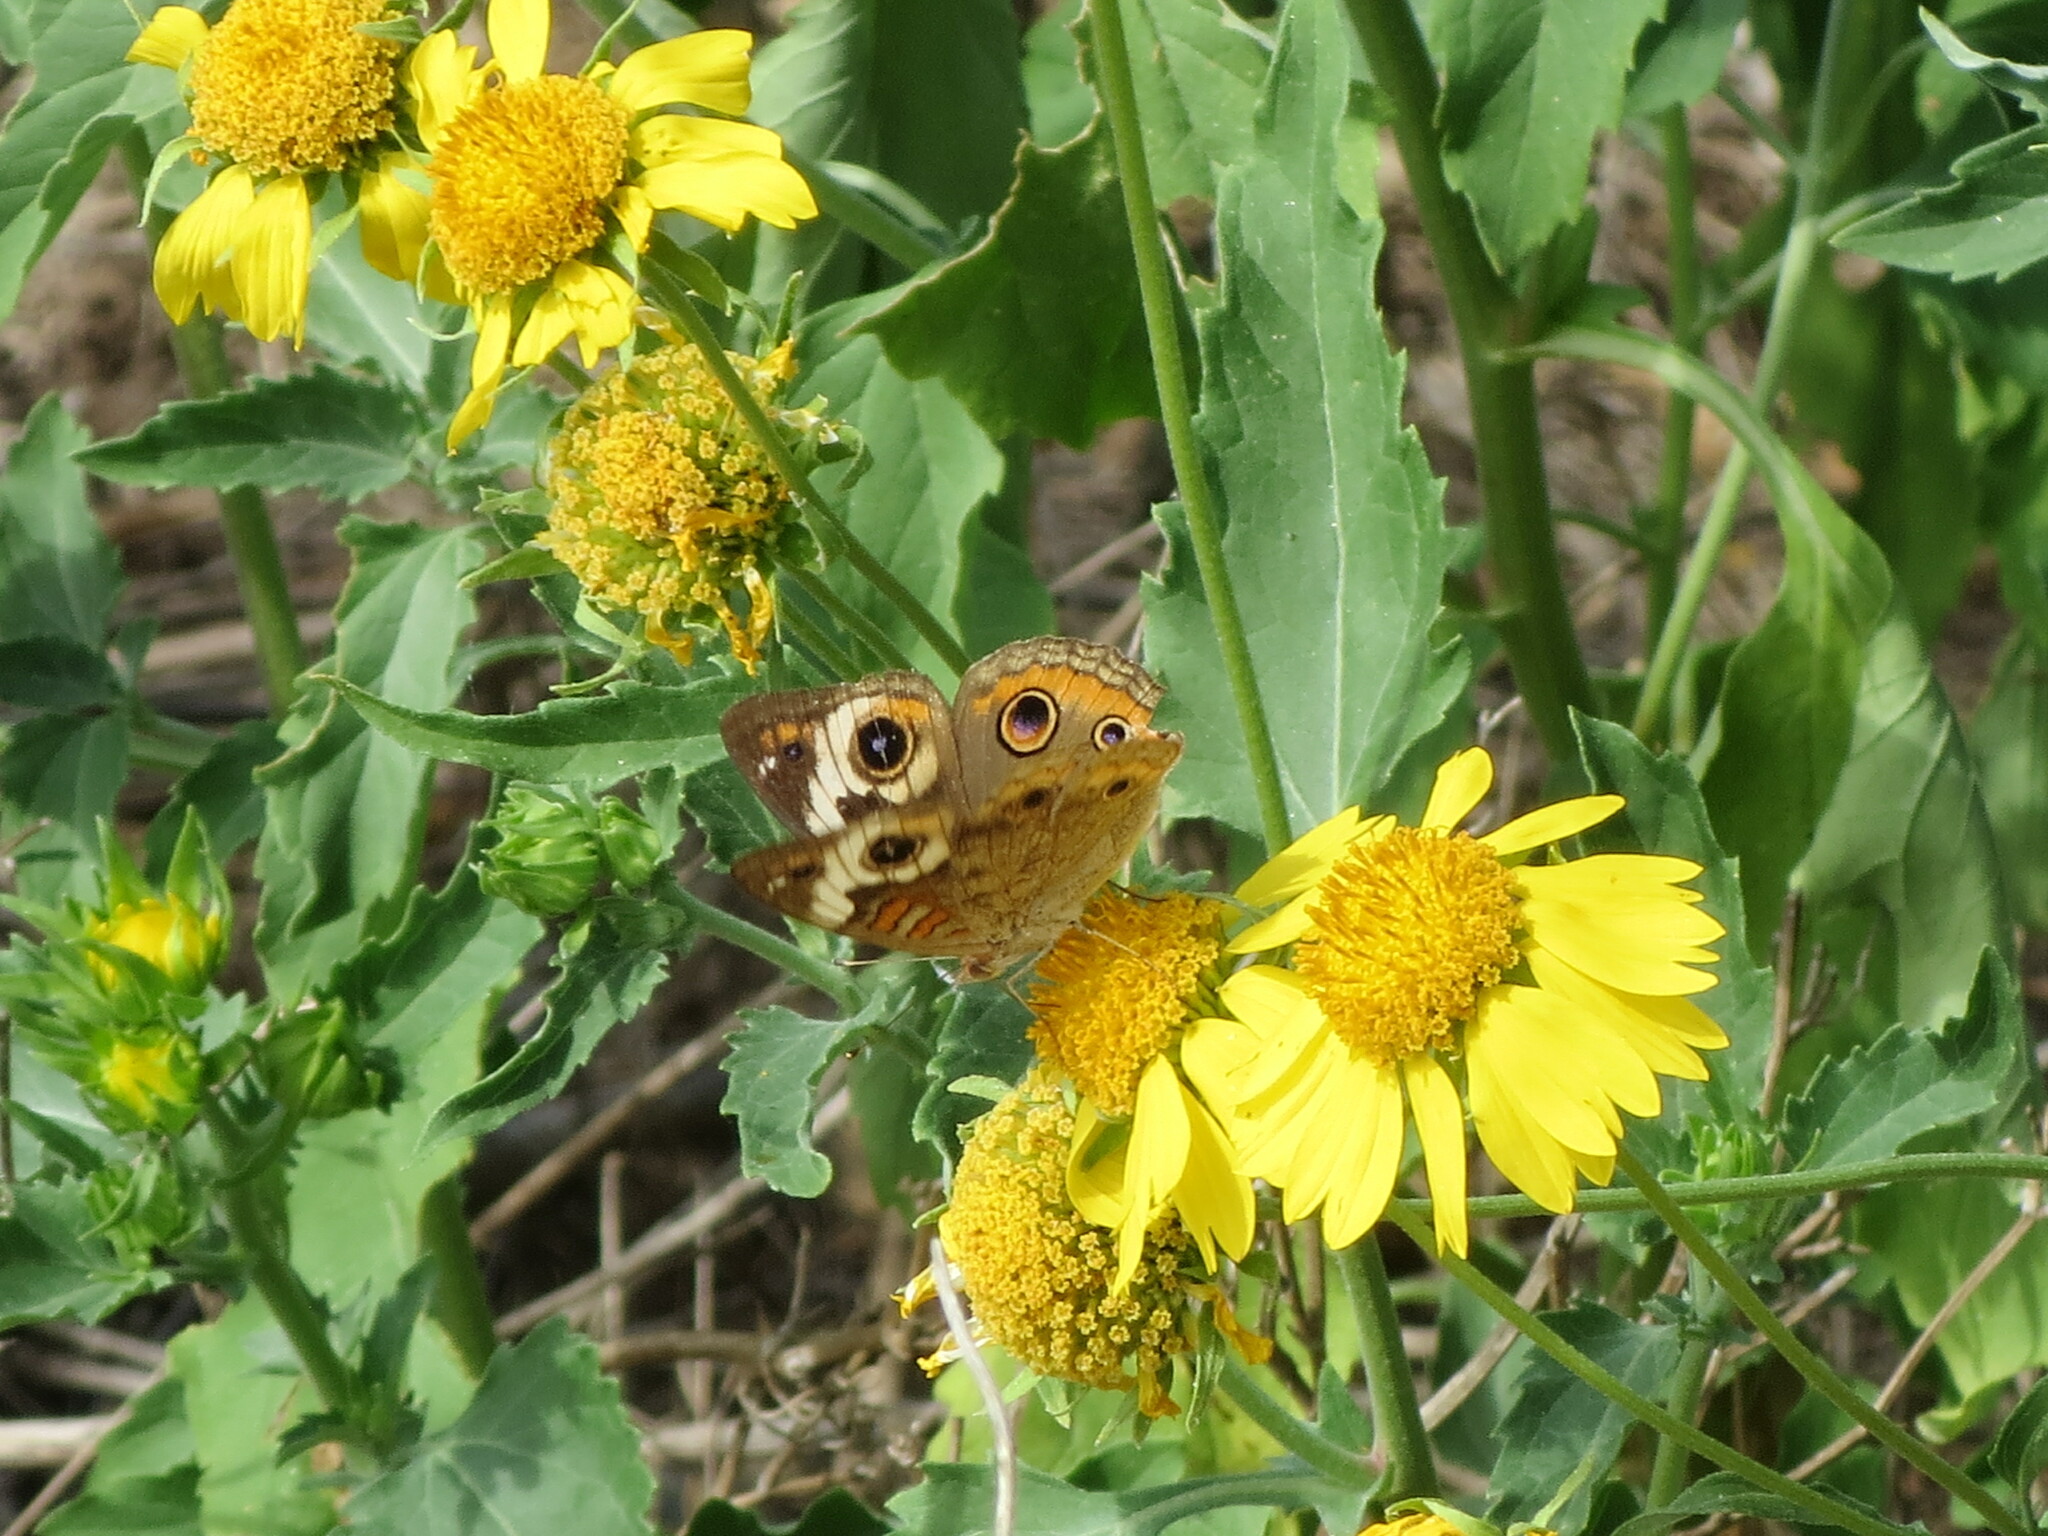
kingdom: Animalia
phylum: Arthropoda
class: Insecta
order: Lepidoptera
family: Nymphalidae
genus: Junonia
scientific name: Junonia coenia
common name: Common buckeye
